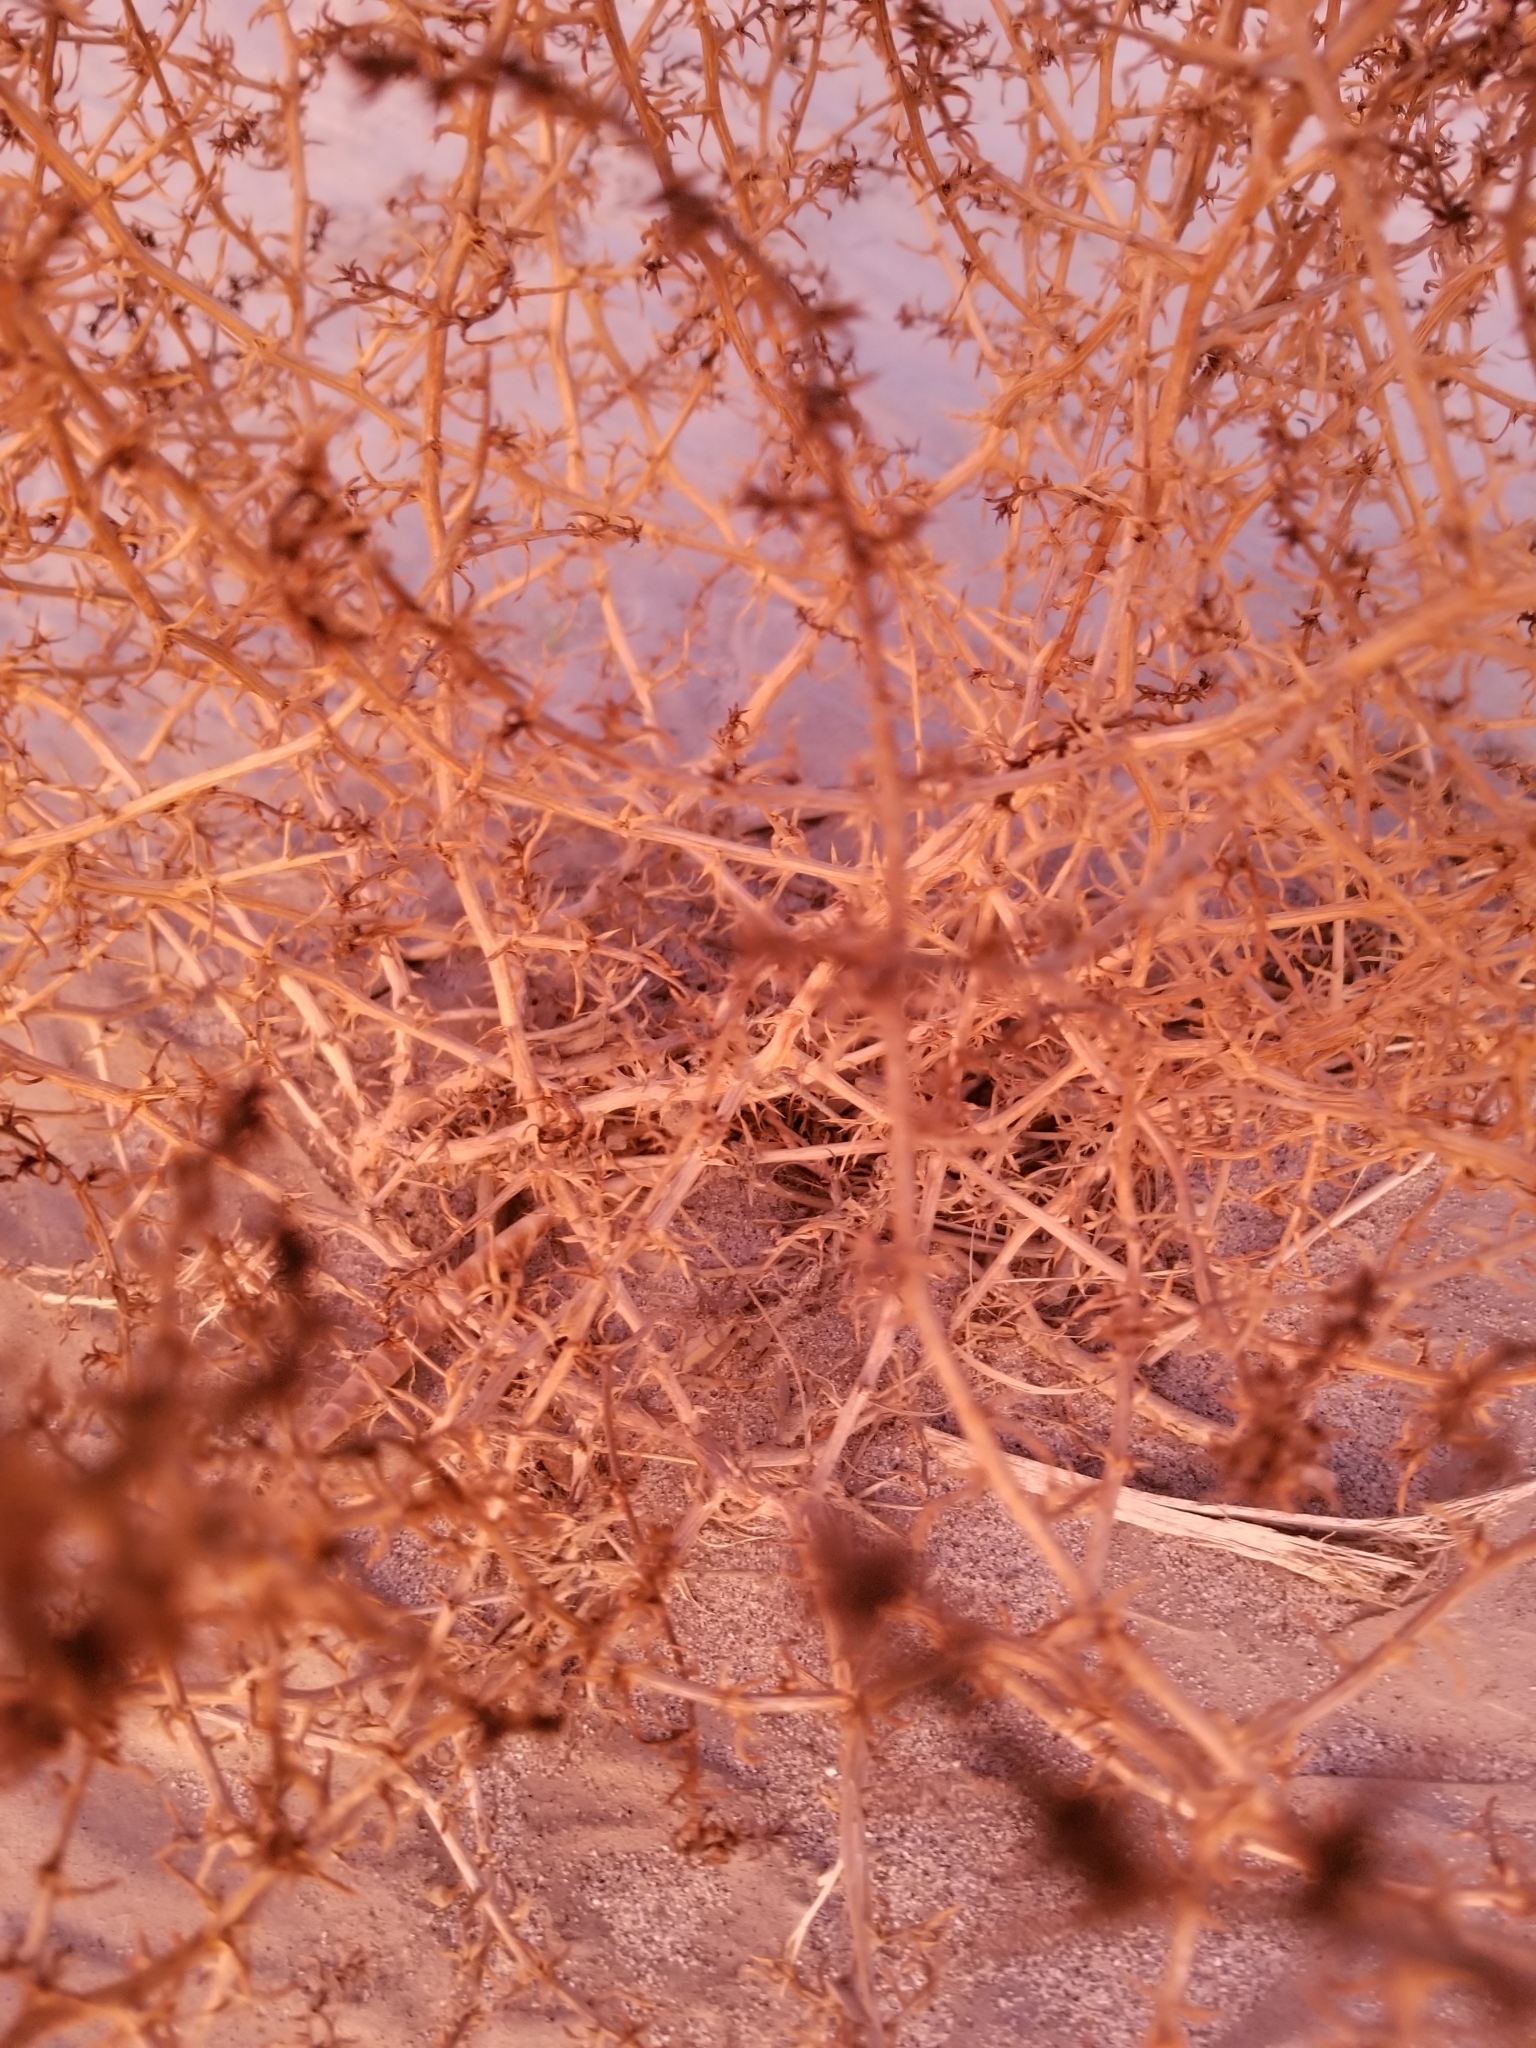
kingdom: Plantae
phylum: Tracheophyta
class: Magnoliopsida
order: Caryophyllales
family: Amaranthaceae
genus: Salsola
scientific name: Salsola tragus
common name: Prickly russian thistle
